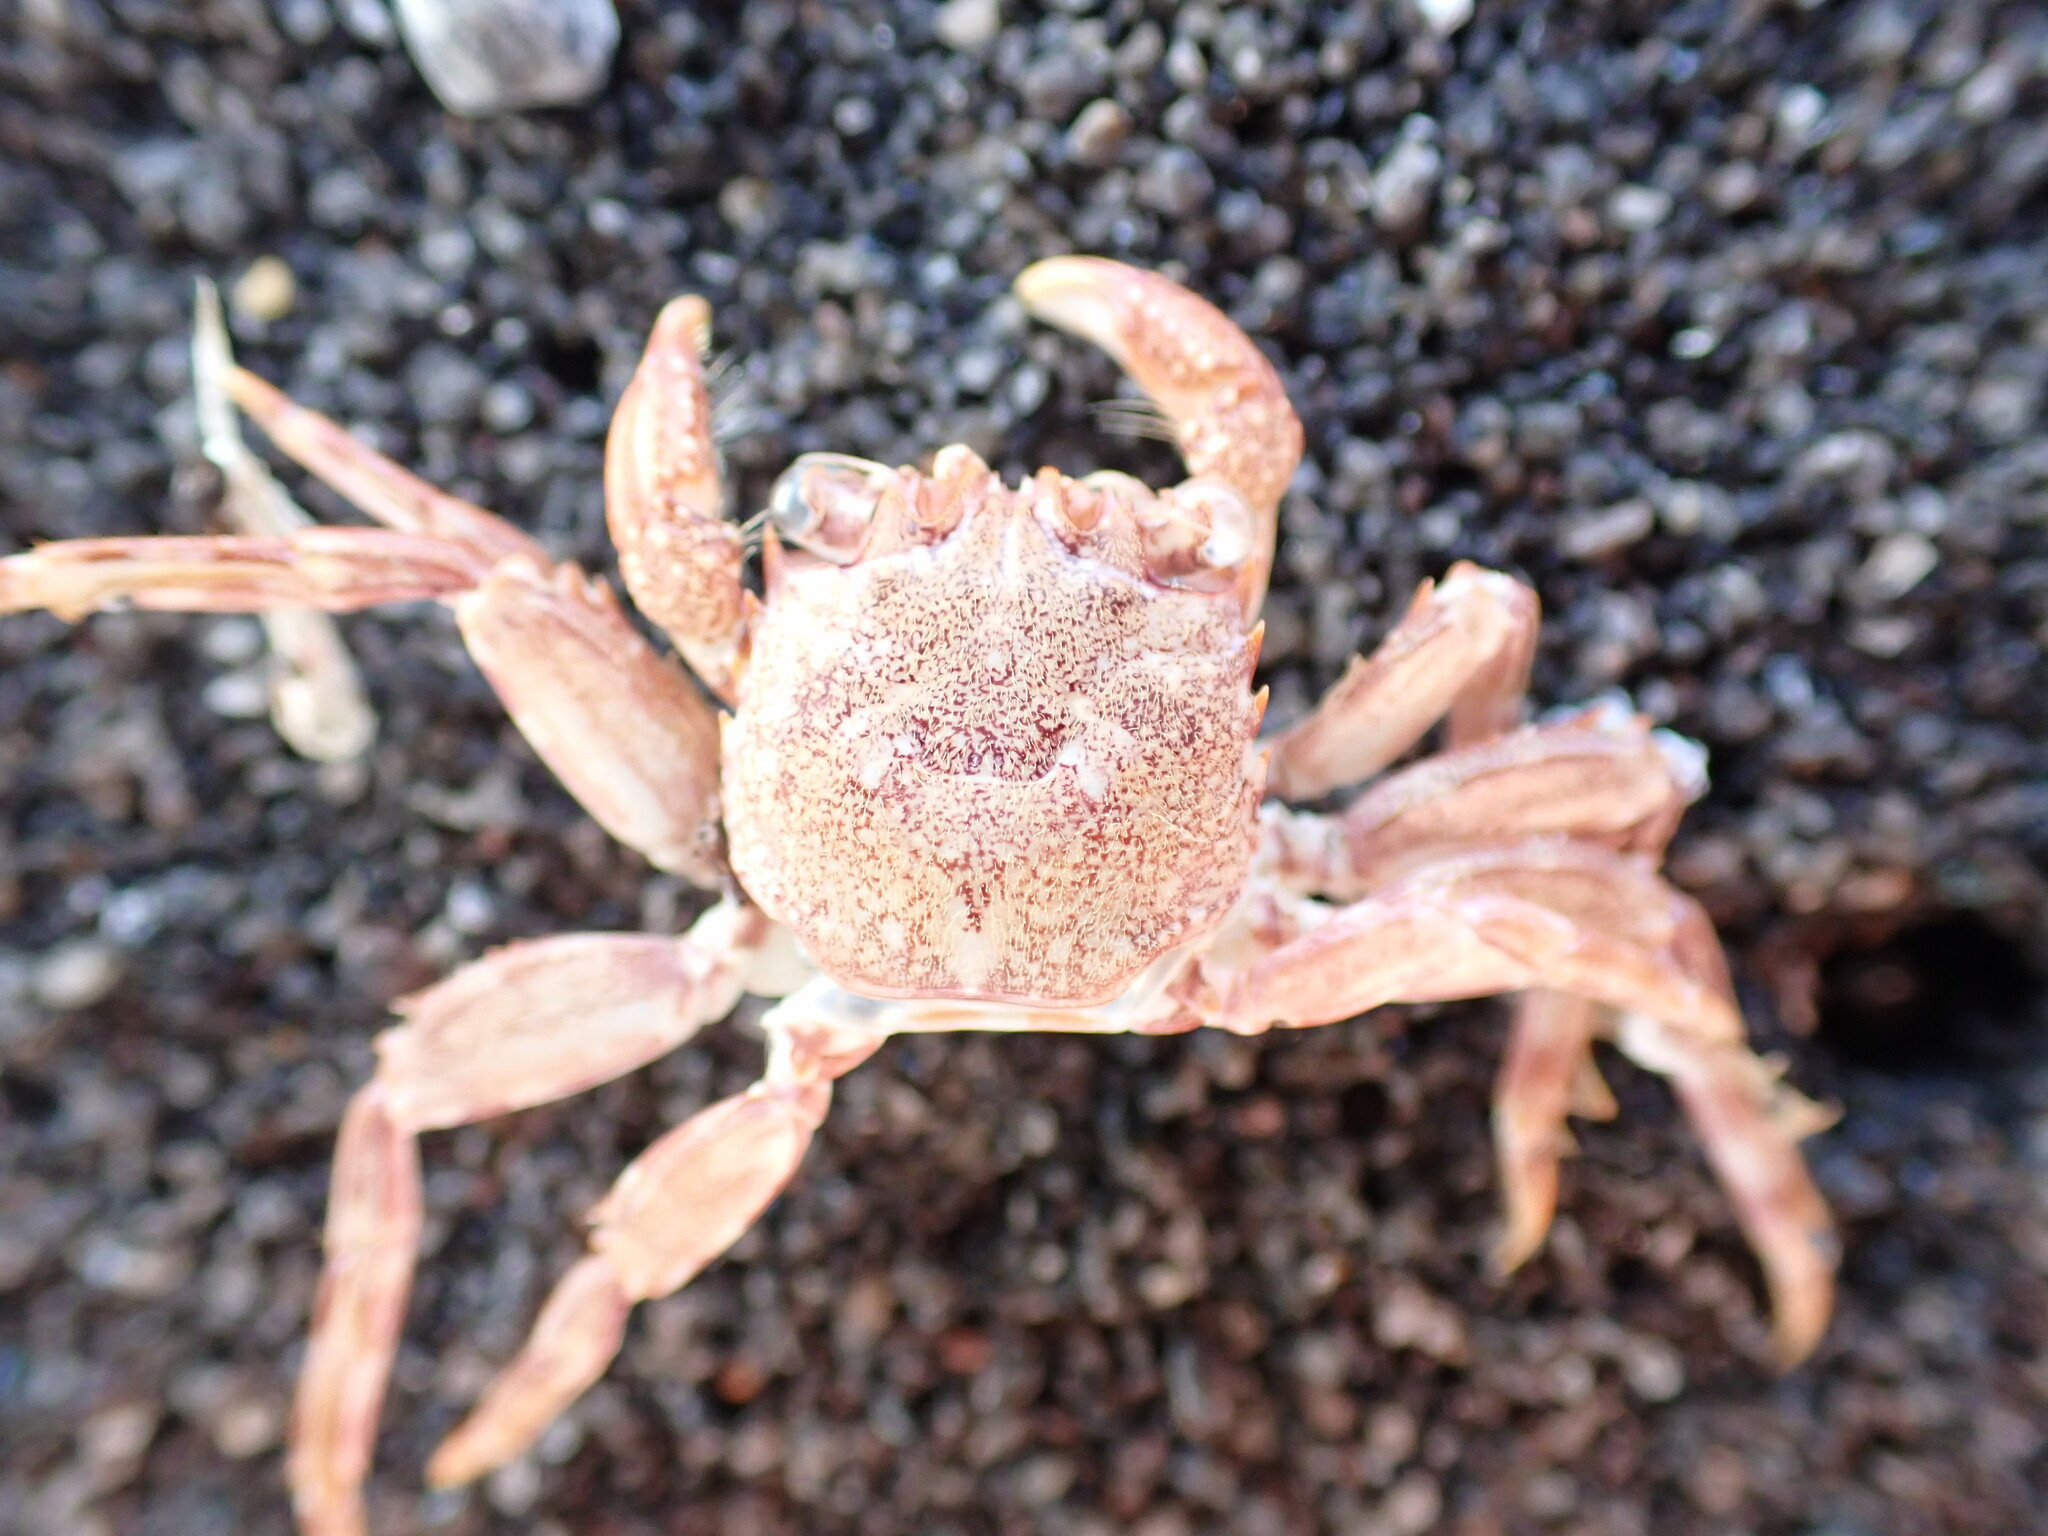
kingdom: Animalia
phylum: Arthropoda
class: Malacostraca
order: Decapoda
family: Plagusiidae
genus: Guinusia
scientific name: Guinusia chabrus
